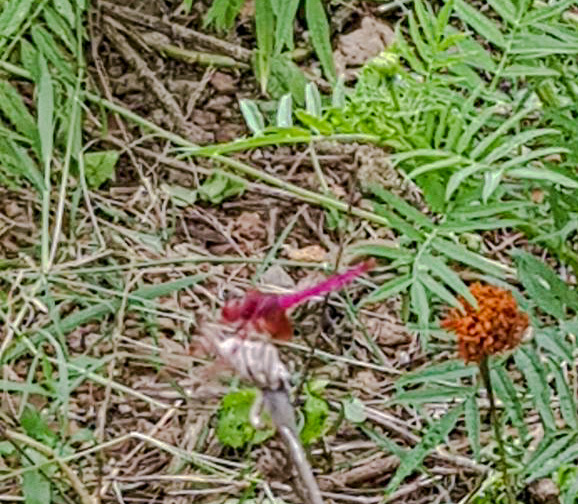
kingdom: Animalia
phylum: Arthropoda
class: Insecta
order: Odonata
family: Libellulidae
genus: Trithemis
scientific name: Trithemis aurora
